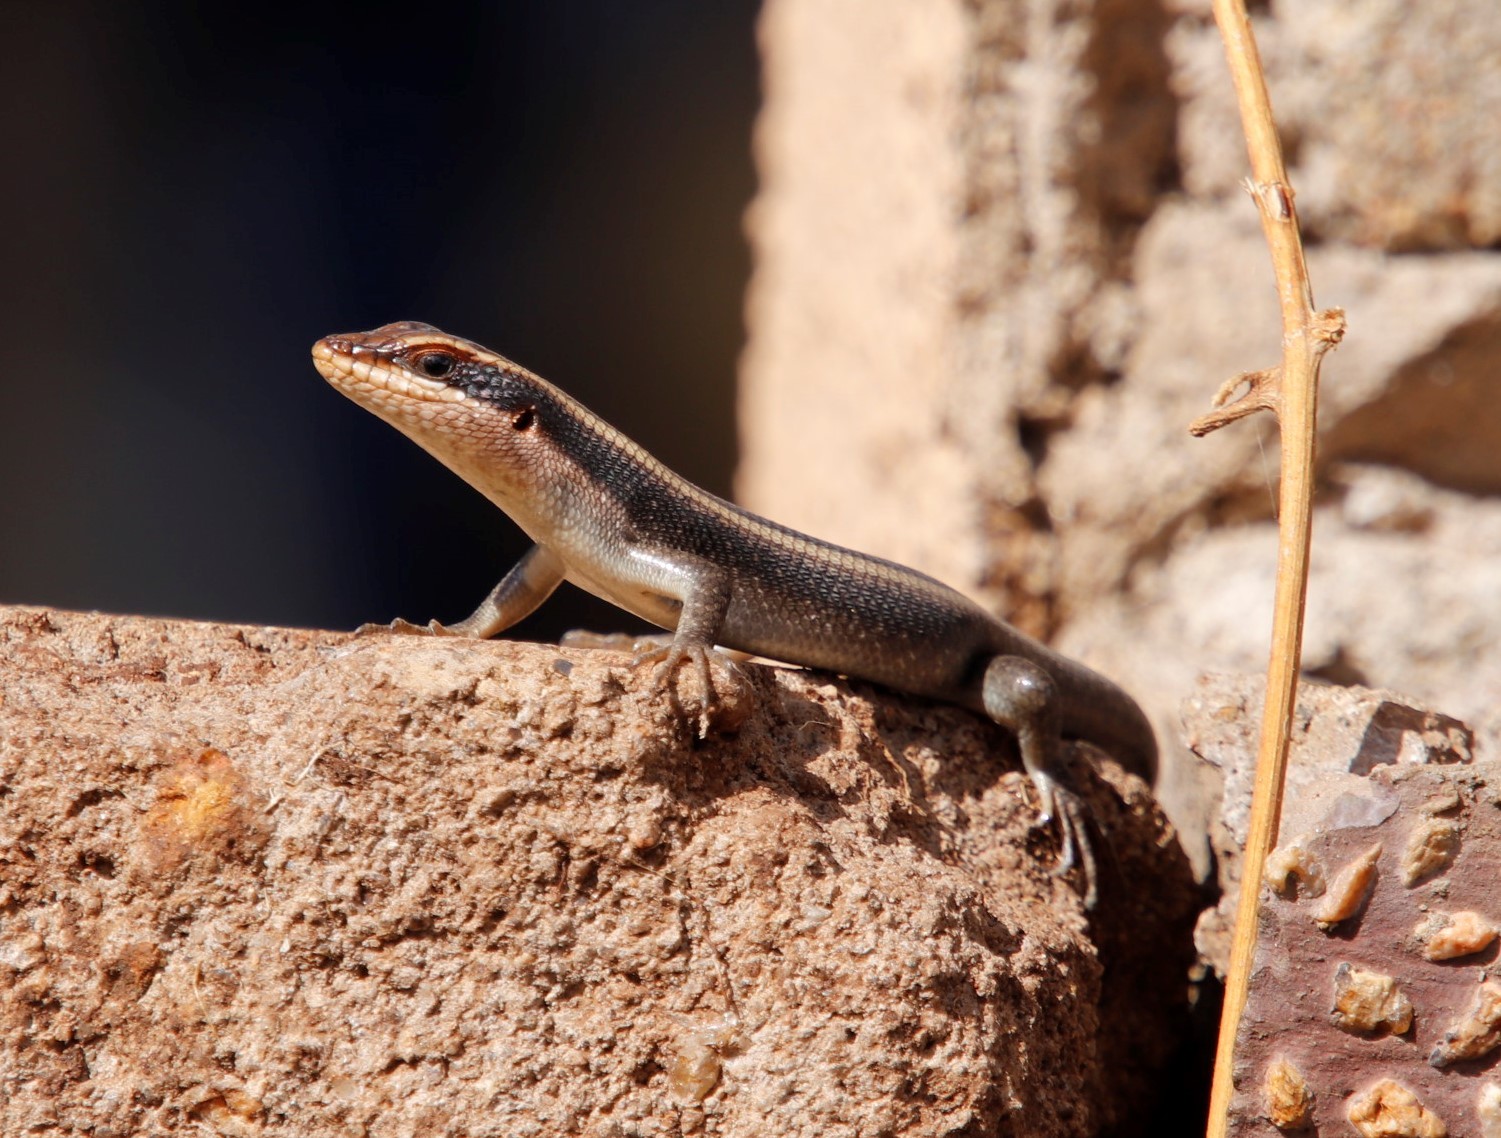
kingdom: Animalia
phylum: Chordata
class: Squamata
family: Scincidae
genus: Trachylepis
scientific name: Trachylepis striata
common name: African striped mabuya
